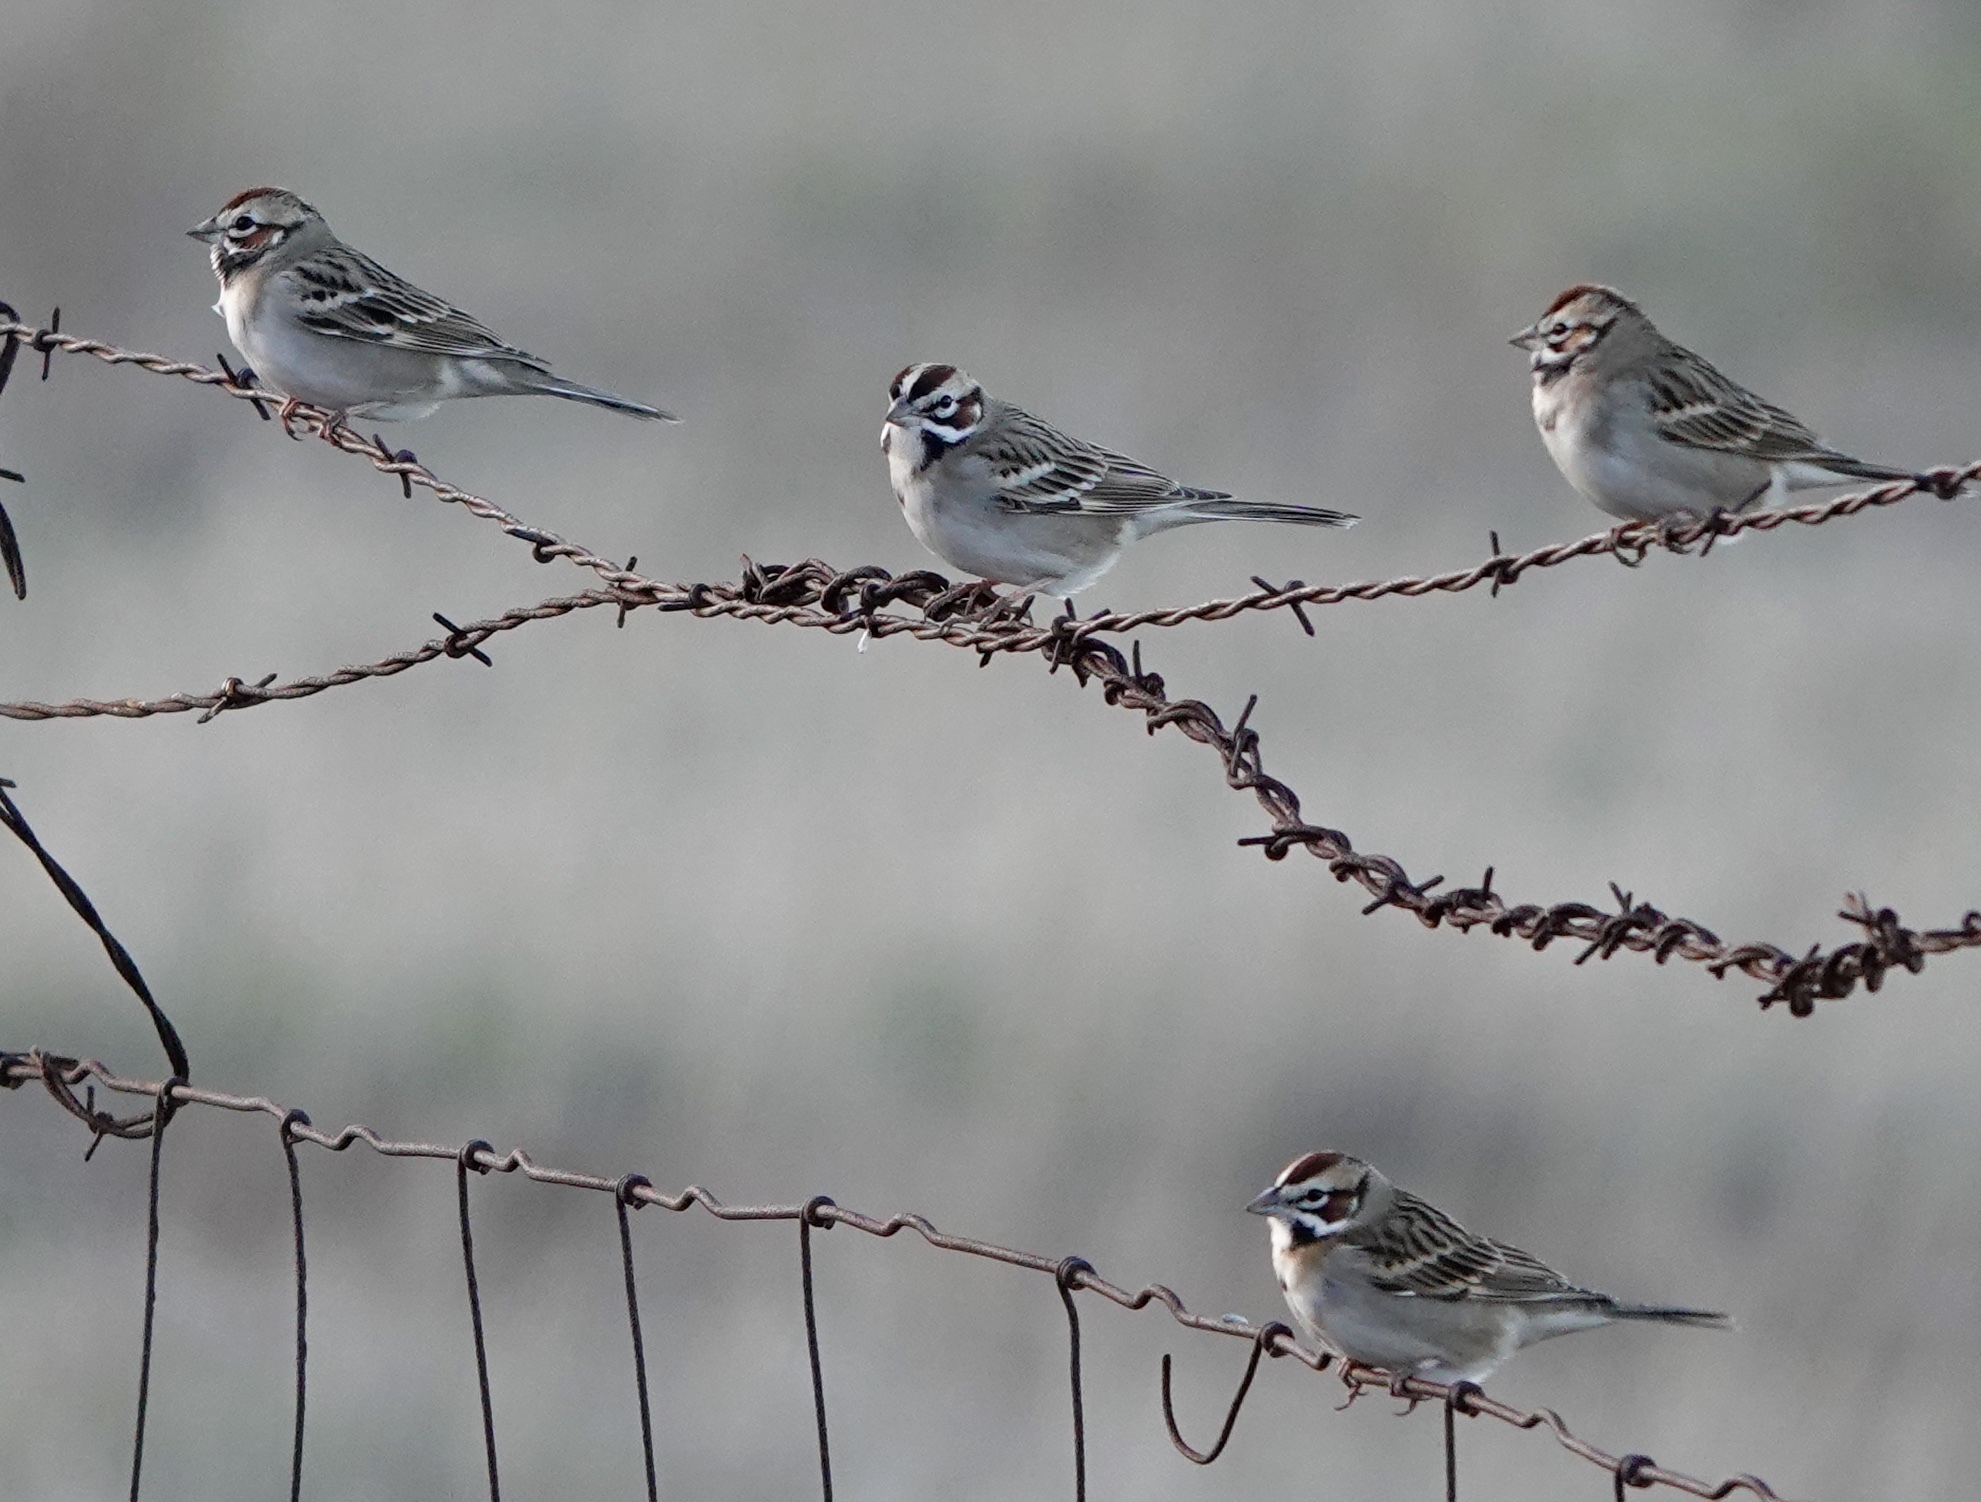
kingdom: Animalia
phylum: Chordata
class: Aves
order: Passeriformes
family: Passerellidae
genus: Chondestes
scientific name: Chondestes grammacus
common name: Lark sparrow
